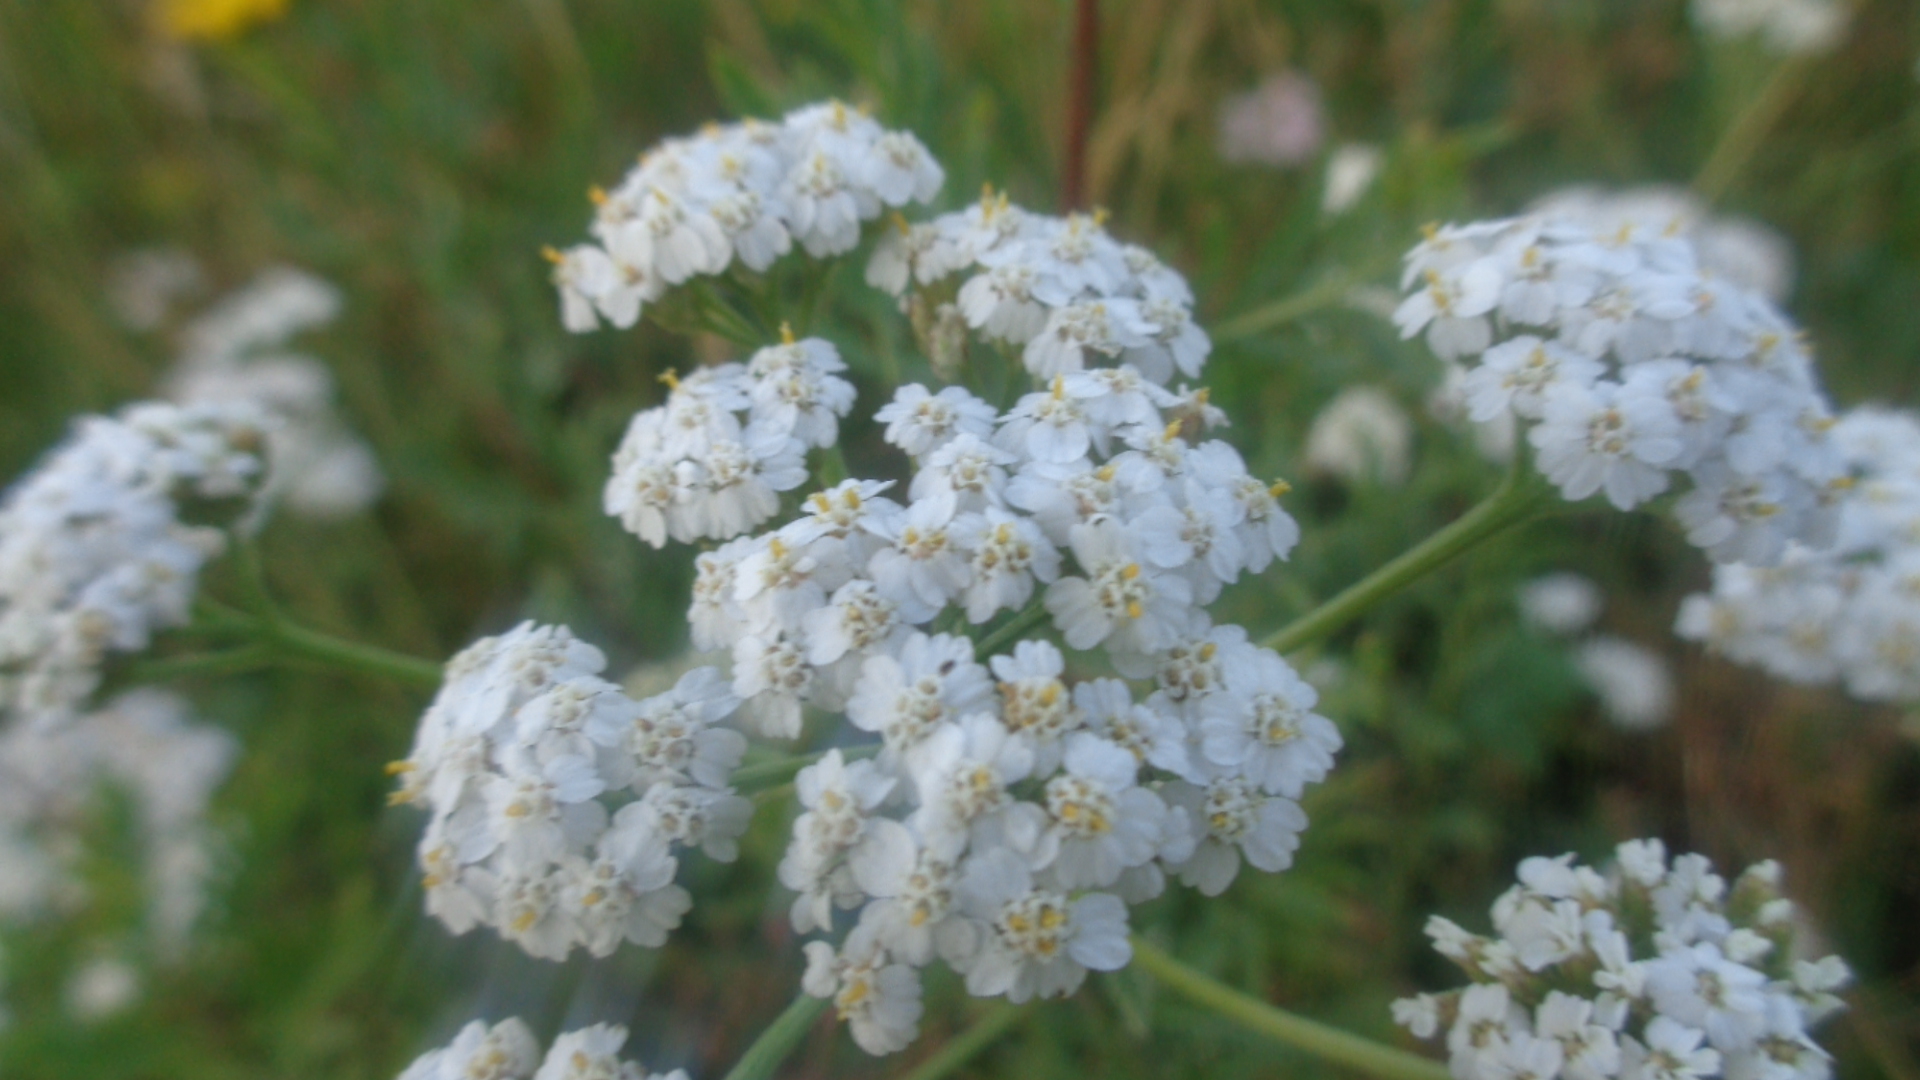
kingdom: Plantae
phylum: Tracheophyta
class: Magnoliopsida
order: Asterales
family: Asteraceae
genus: Achillea
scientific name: Achillea millefolium
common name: Yarrow
